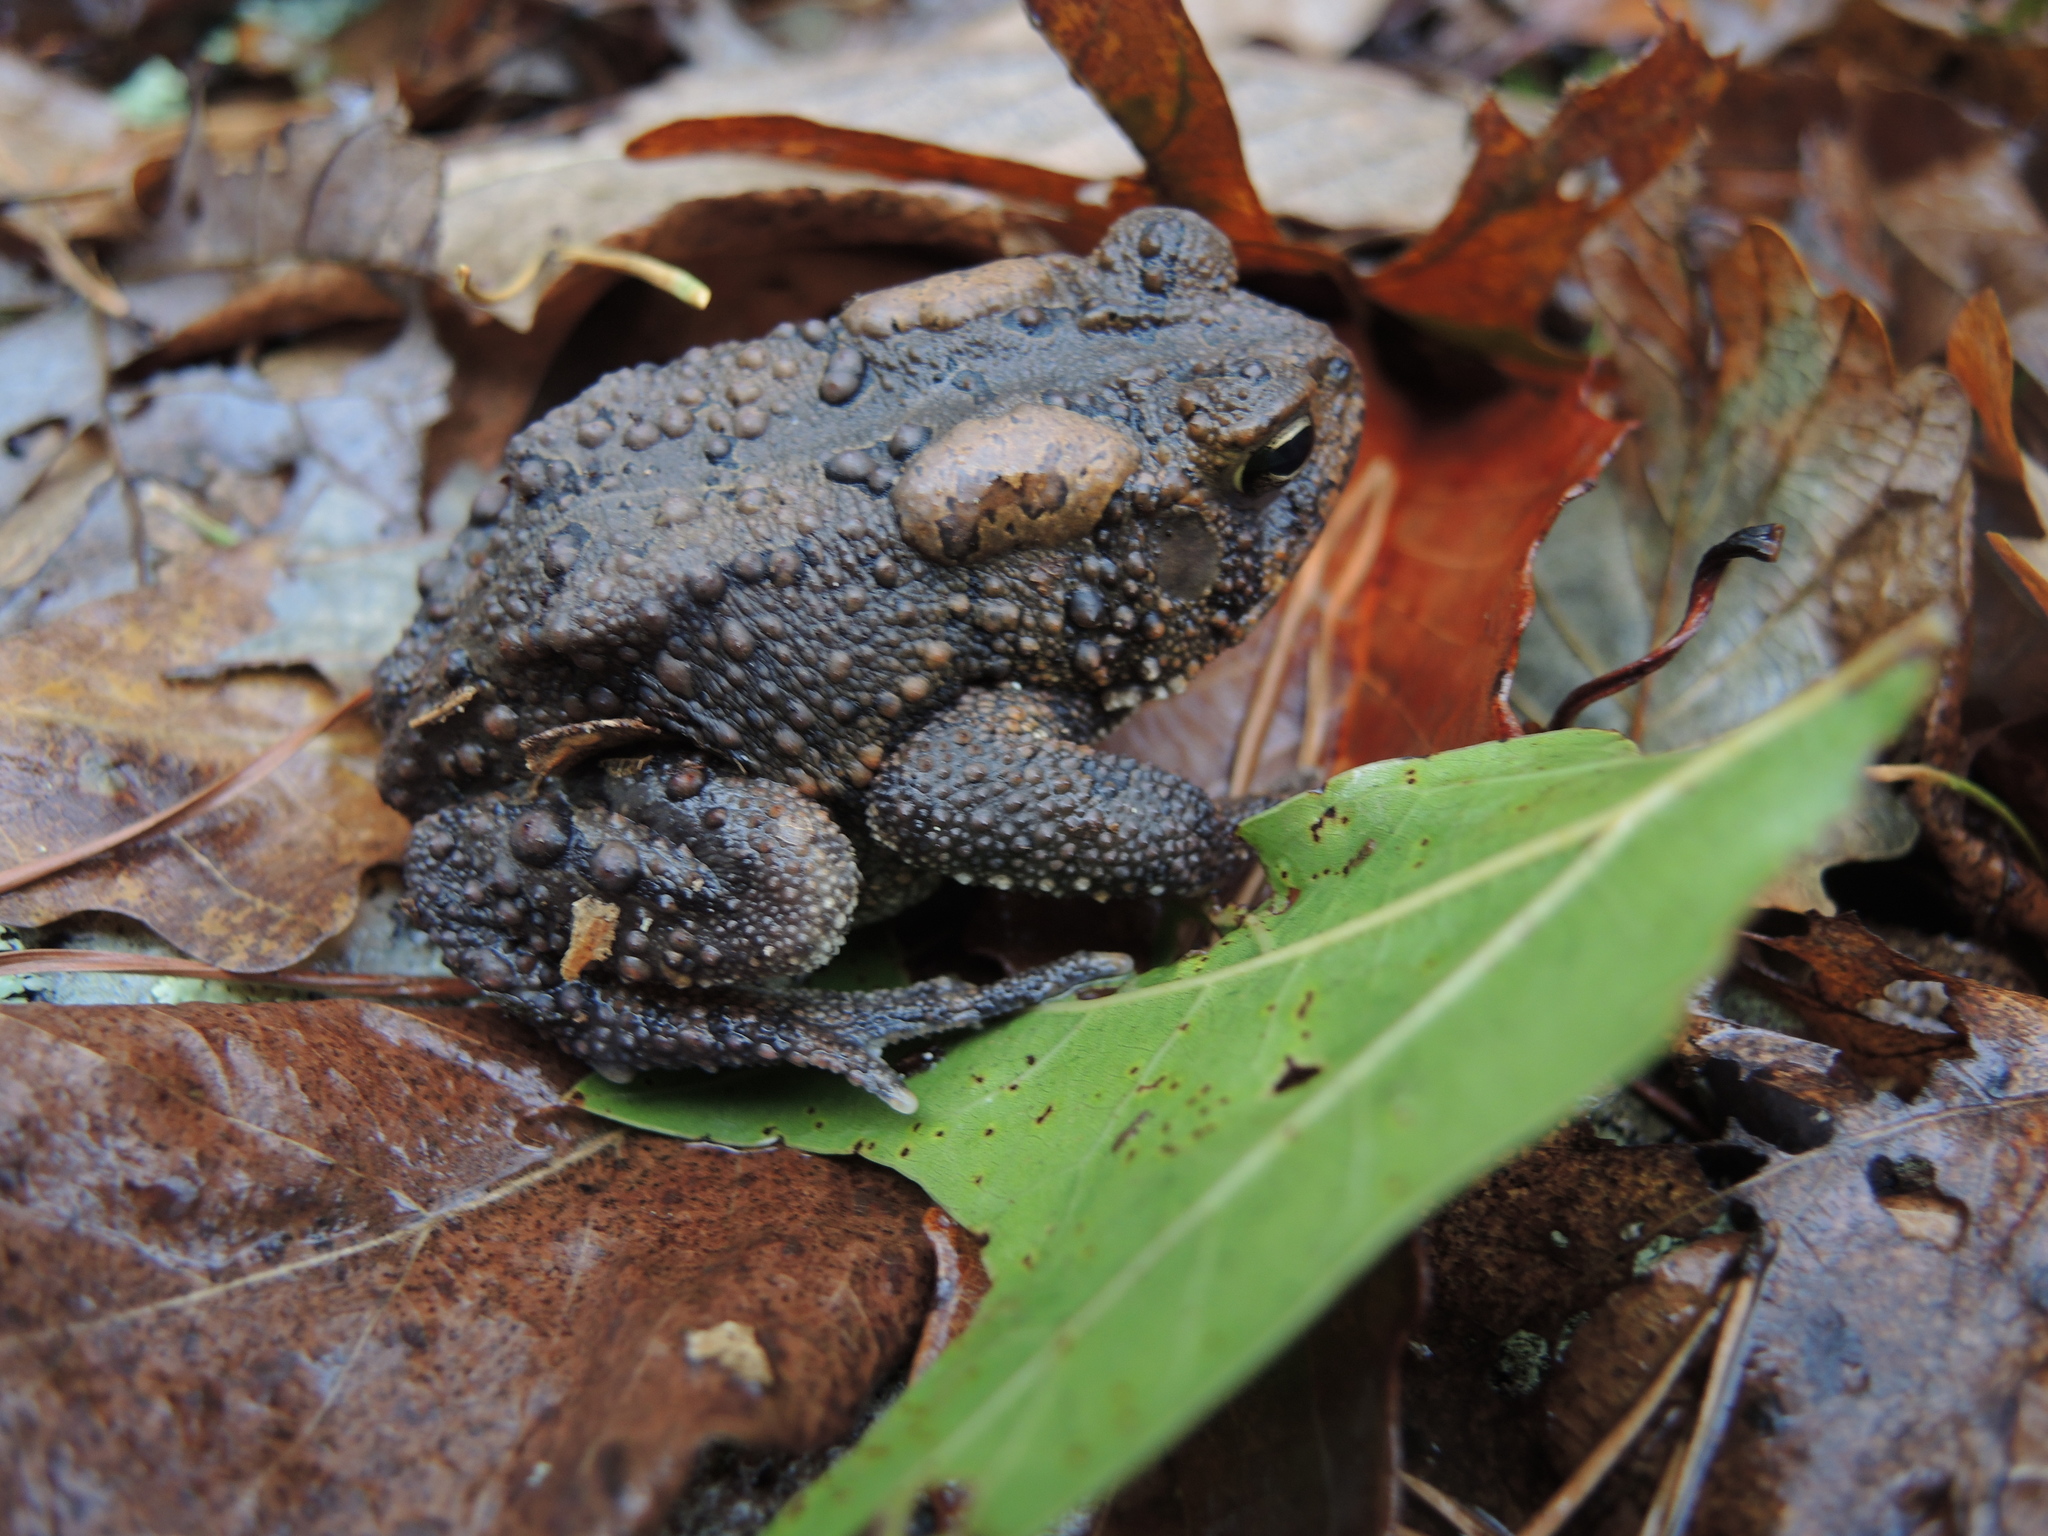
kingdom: Animalia
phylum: Chordata
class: Amphibia
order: Anura
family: Bufonidae
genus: Anaxyrus
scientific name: Anaxyrus americanus
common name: American toad
